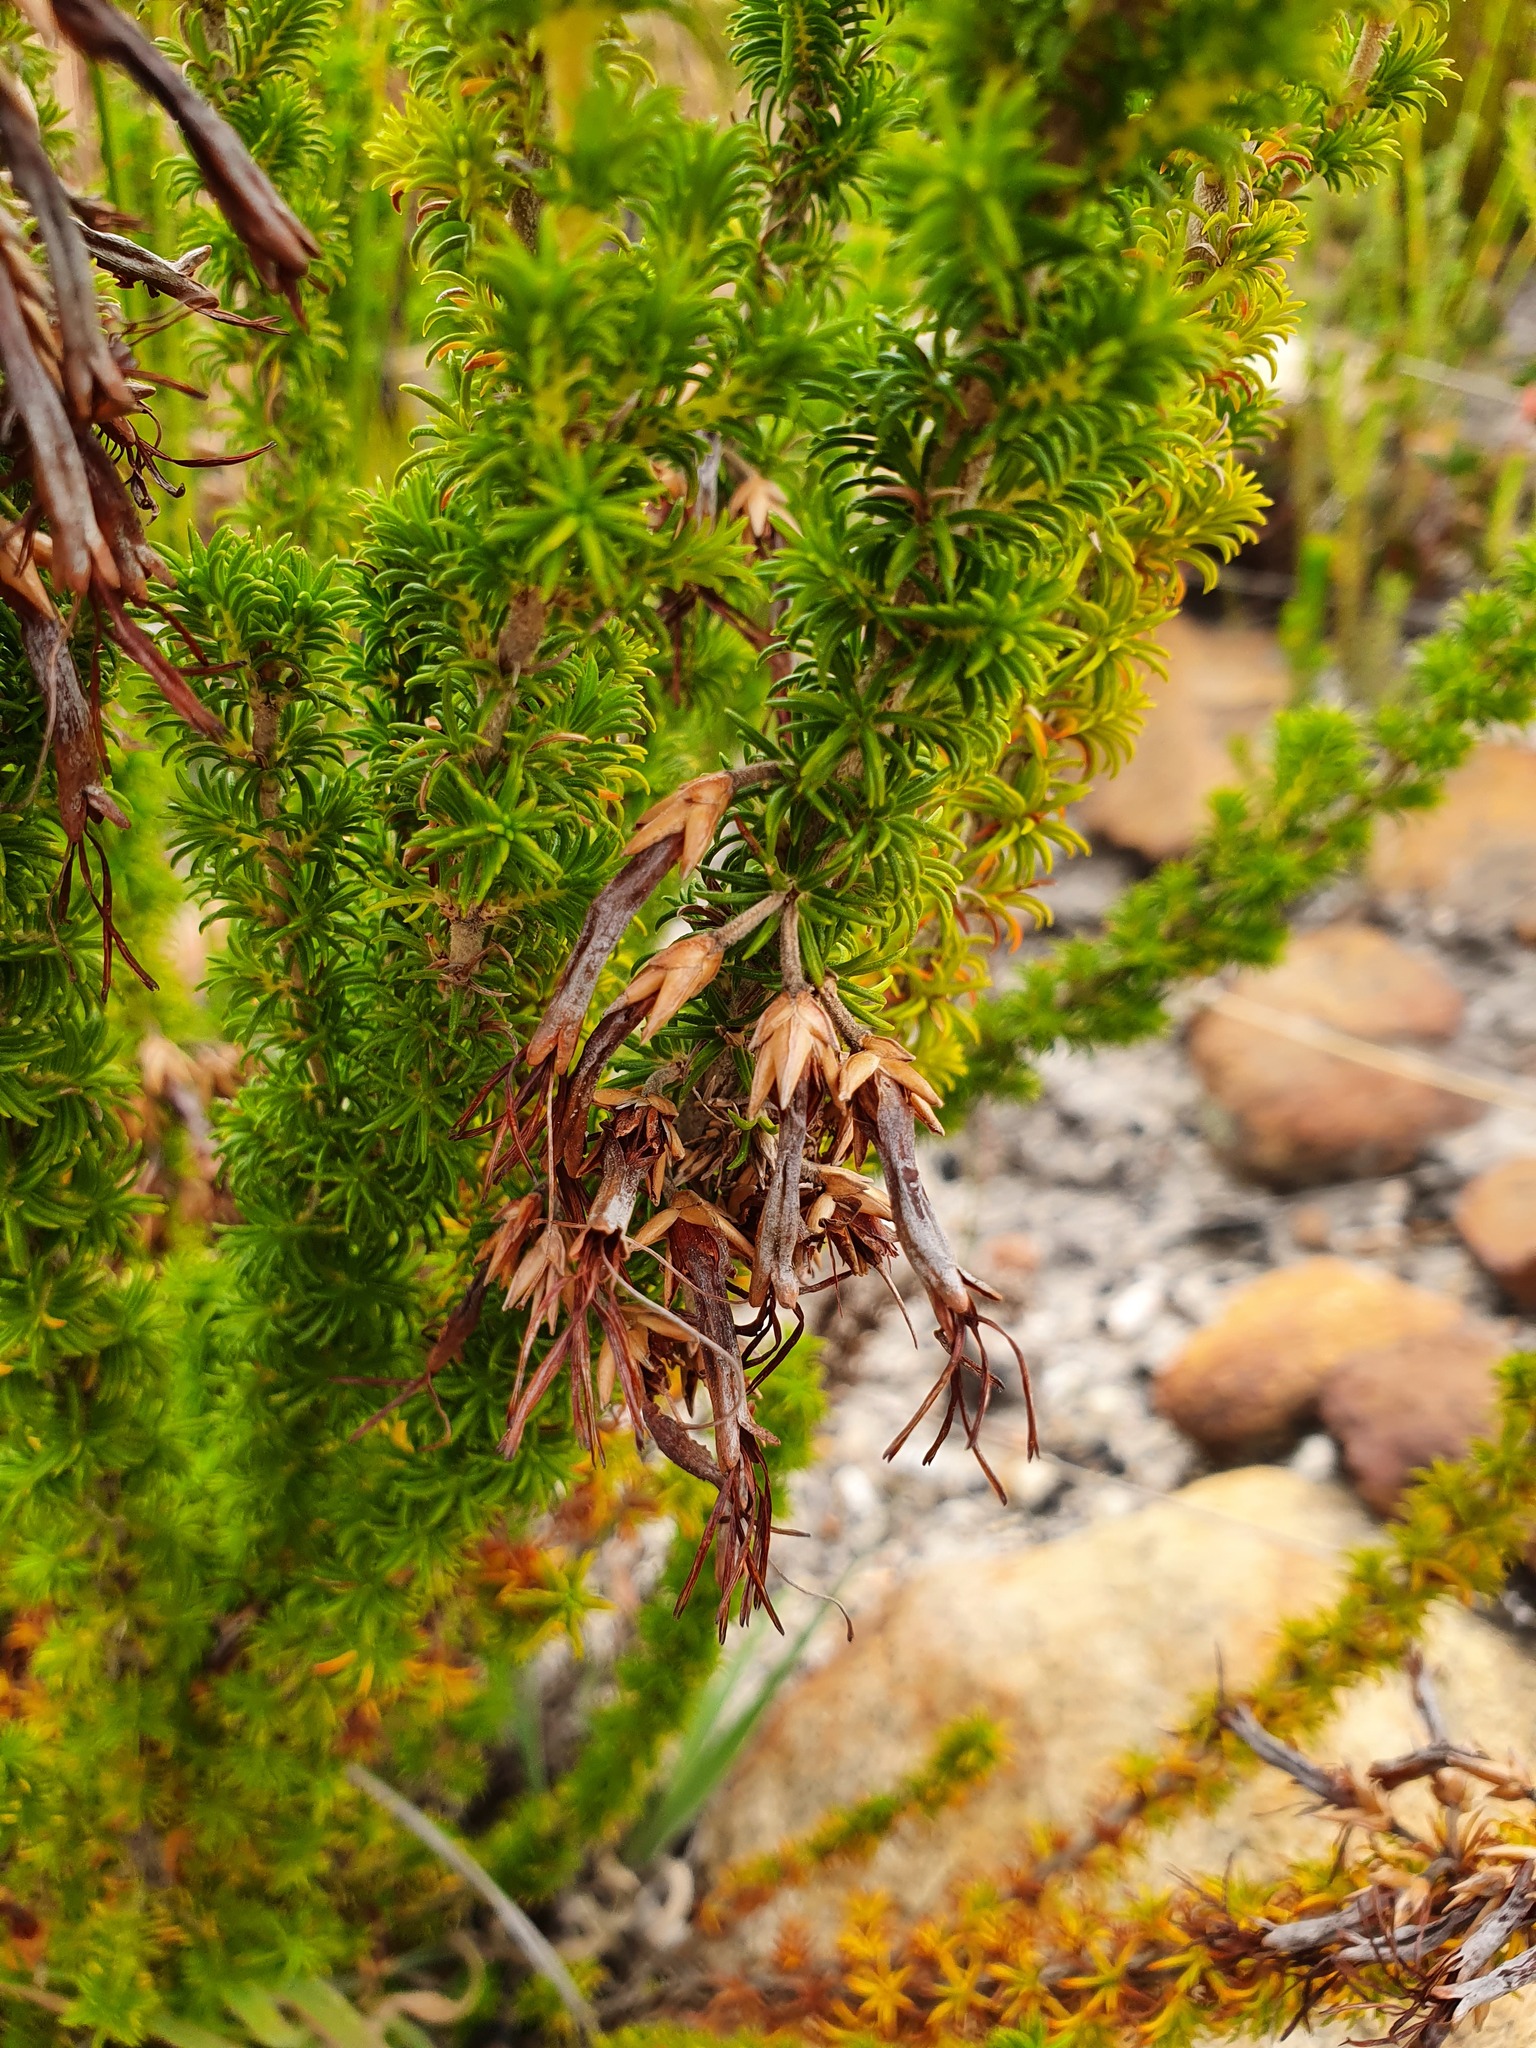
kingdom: Plantae
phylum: Tracheophyta
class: Magnoliopsida
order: Ericales
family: Ericaceae
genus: Erica
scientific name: Erica coccinea
